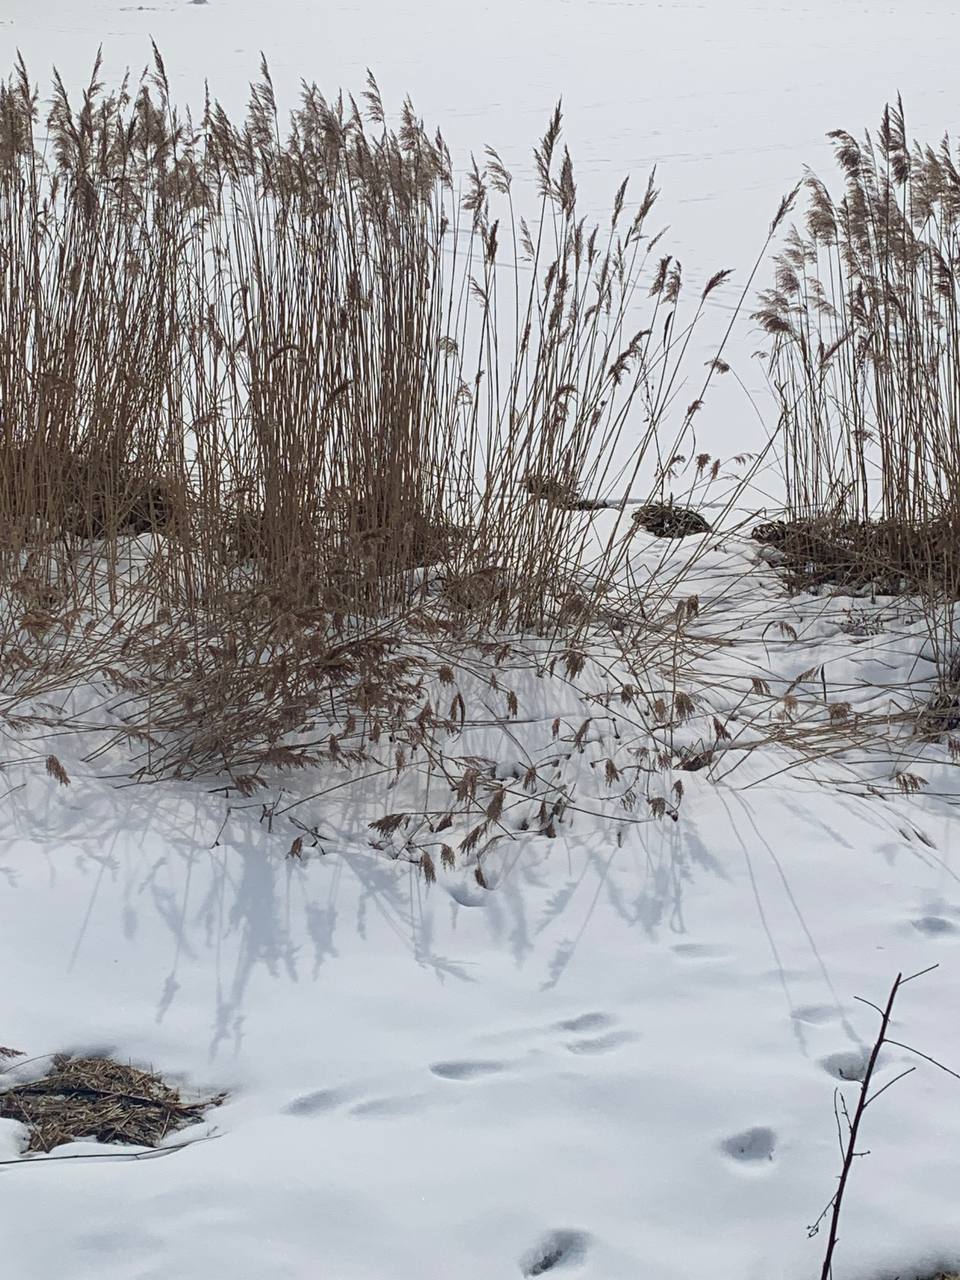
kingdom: Plantae
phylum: Tracheophyta
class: Liliopsida
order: Poales
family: Poaceae
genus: Phragmites
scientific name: Phragmites australis
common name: Common reed
